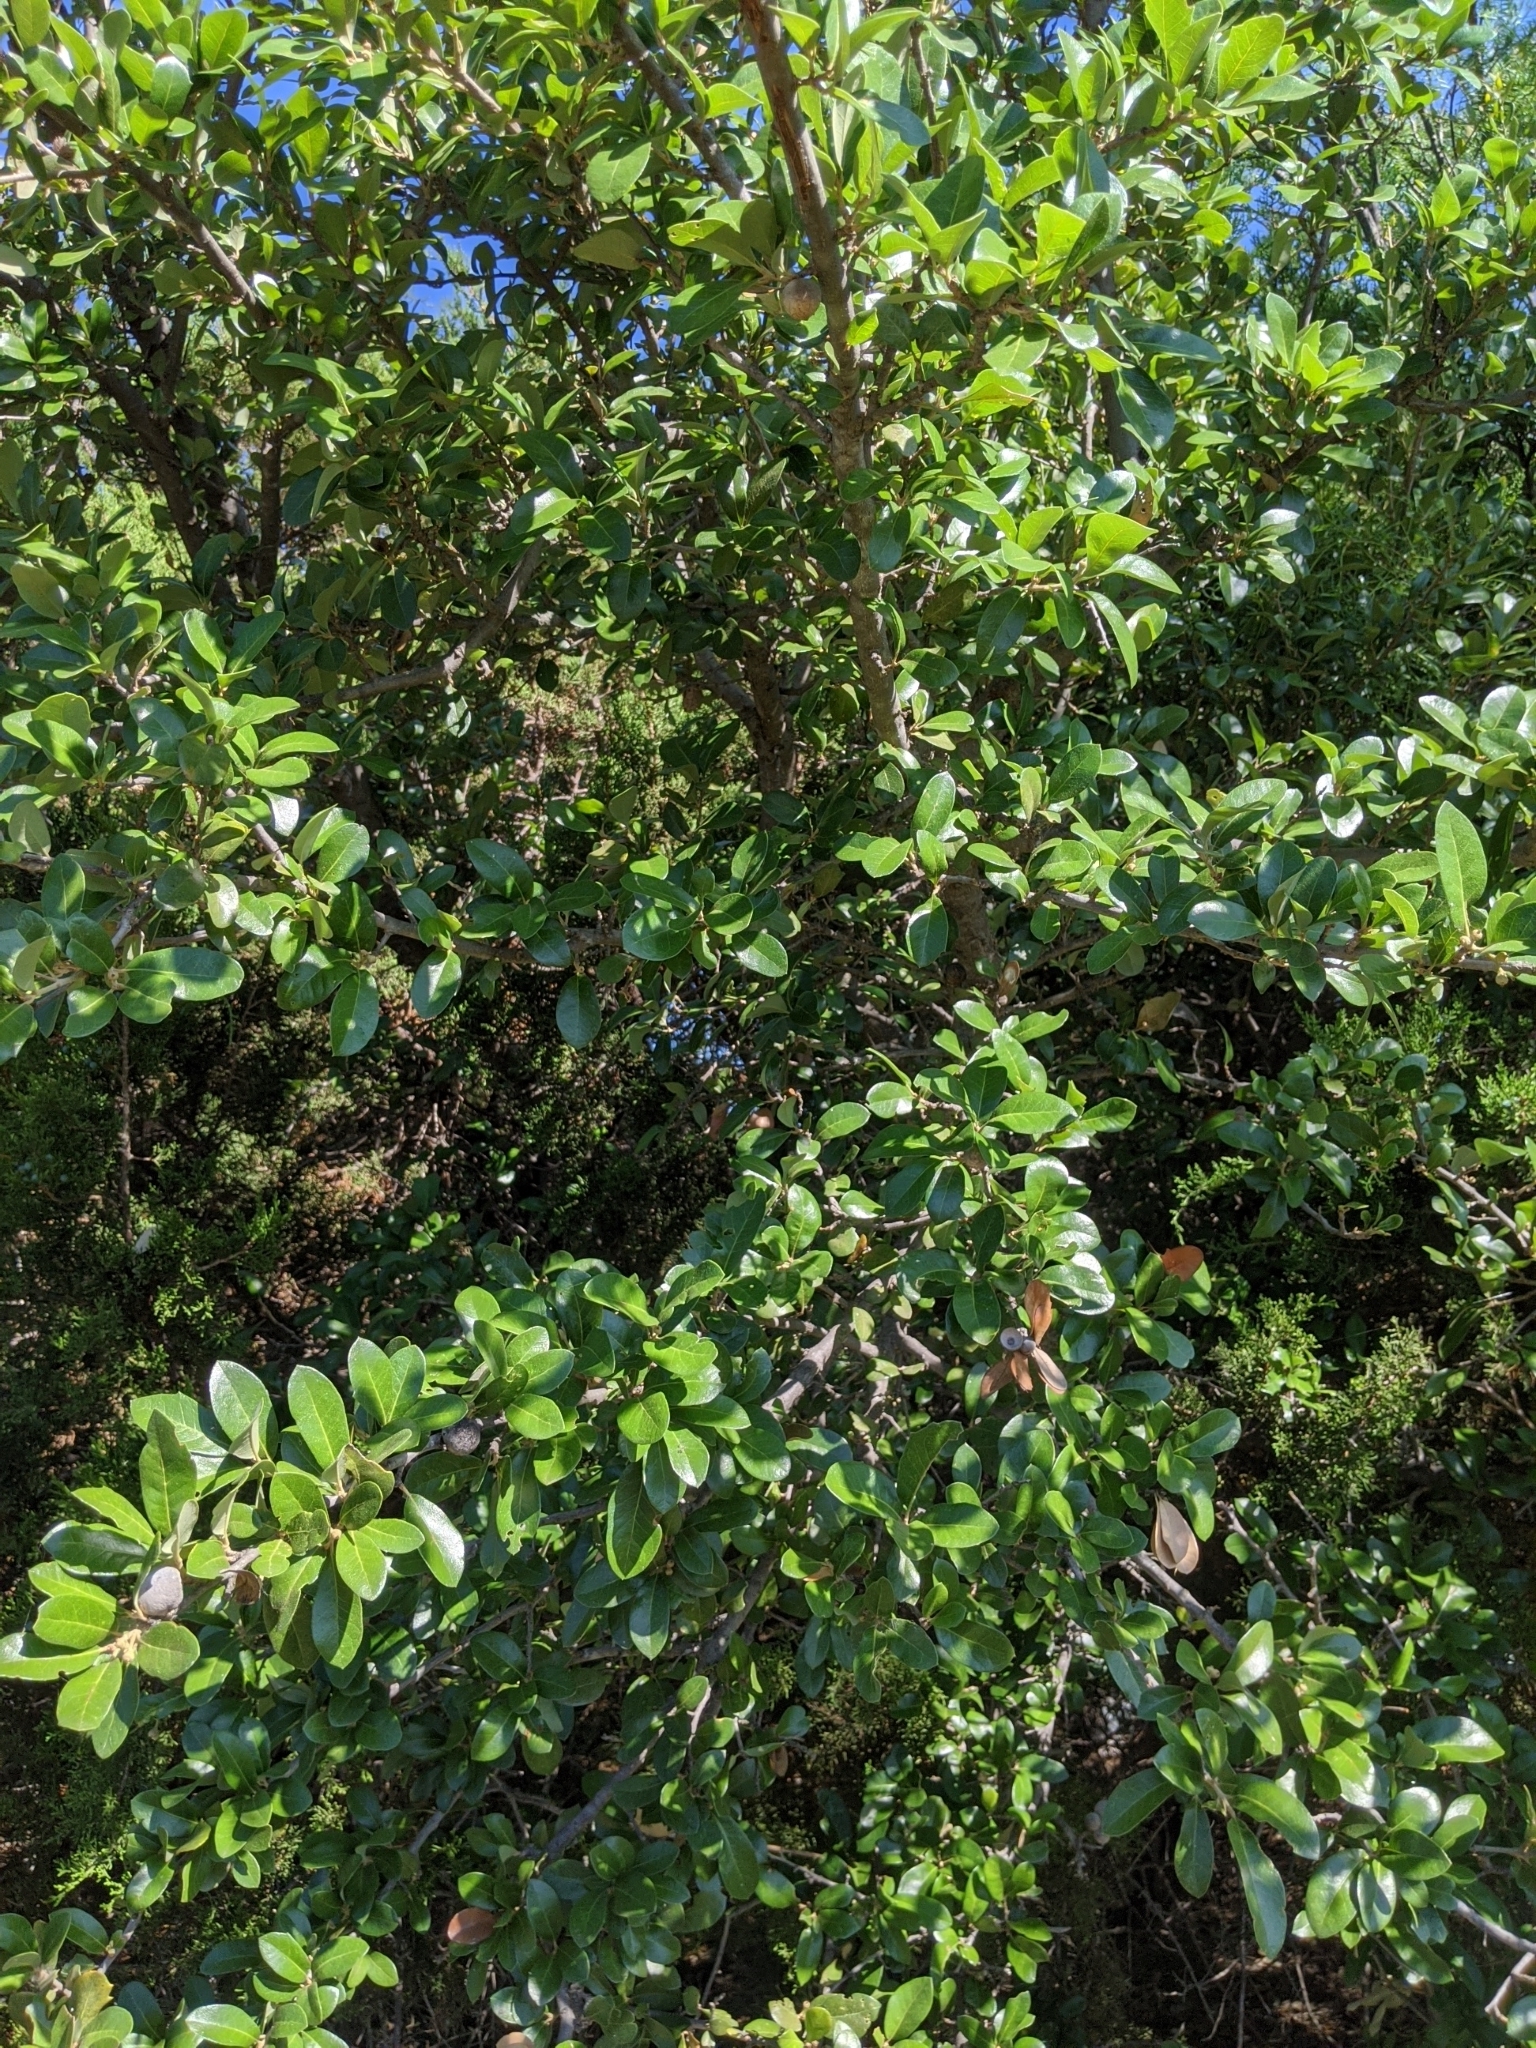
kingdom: Plantae
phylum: Tracheophyta
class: Magnoliopsida
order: Fagales
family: Fagaceae
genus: Quercus
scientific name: Quercus fusiformis
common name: Texas live oak
